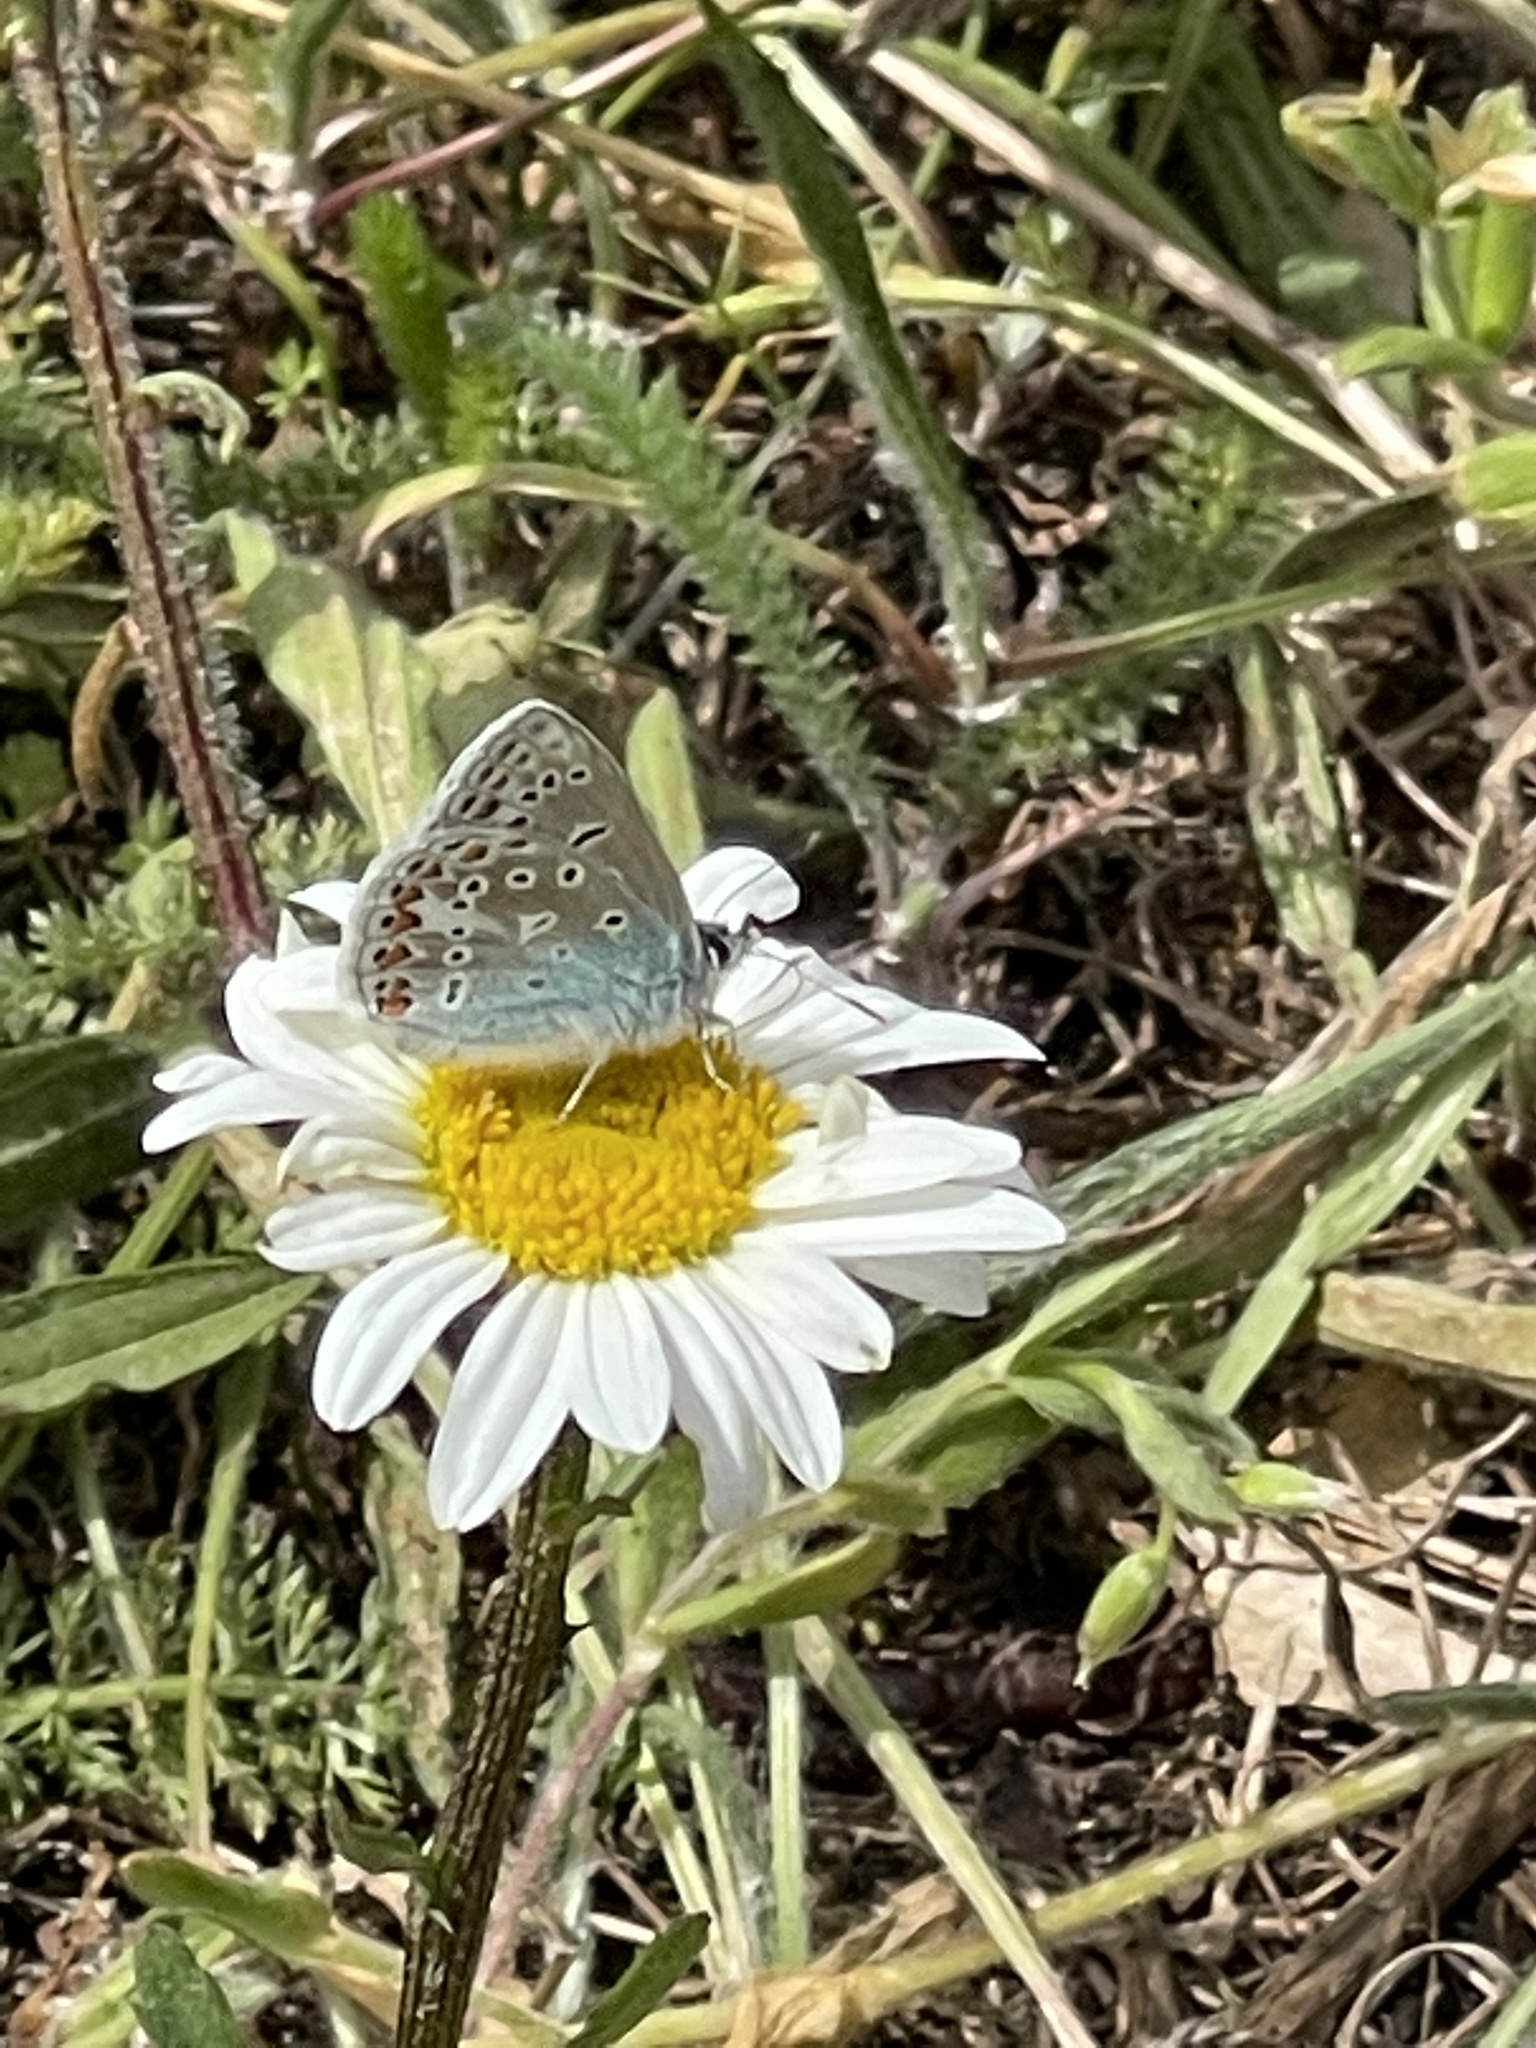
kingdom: Animalia
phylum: Arthropoda
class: Insecta
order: Lepidoptera
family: Lycaenidae
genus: Polyommatus
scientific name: Polyommatus icarus
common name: Common blue
